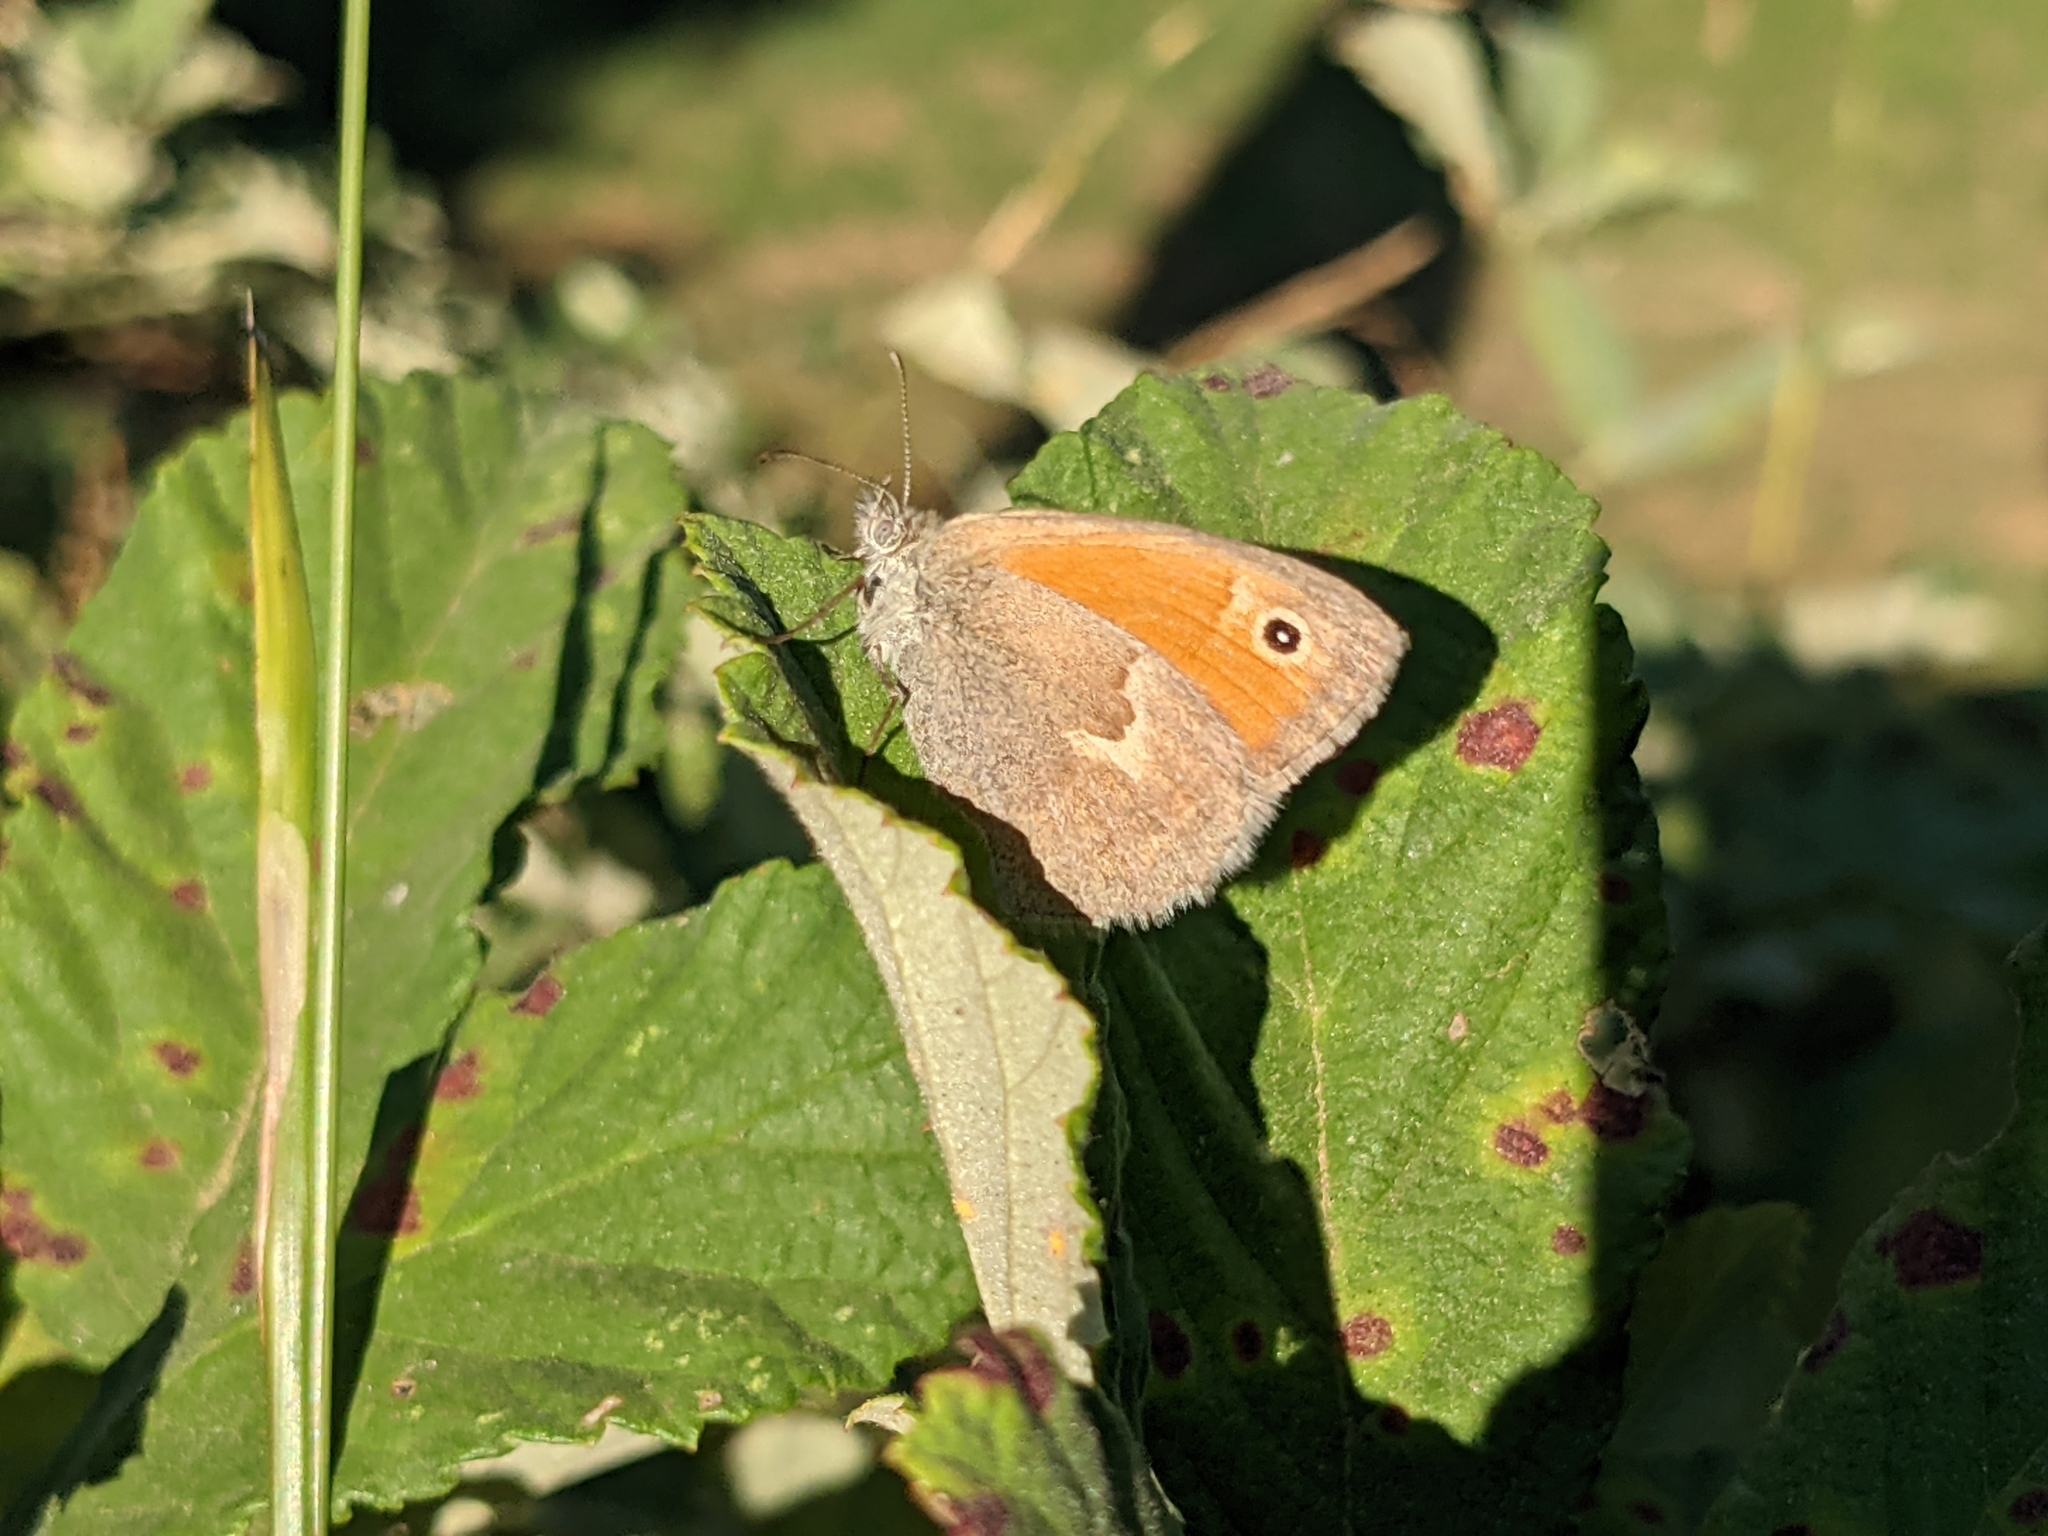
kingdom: Animalia
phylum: Arthropoda
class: Insecta
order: Lepidoptera
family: Nymphalidae
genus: Coenonympha
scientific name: Coenonympha pamphilus
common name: Small heath
